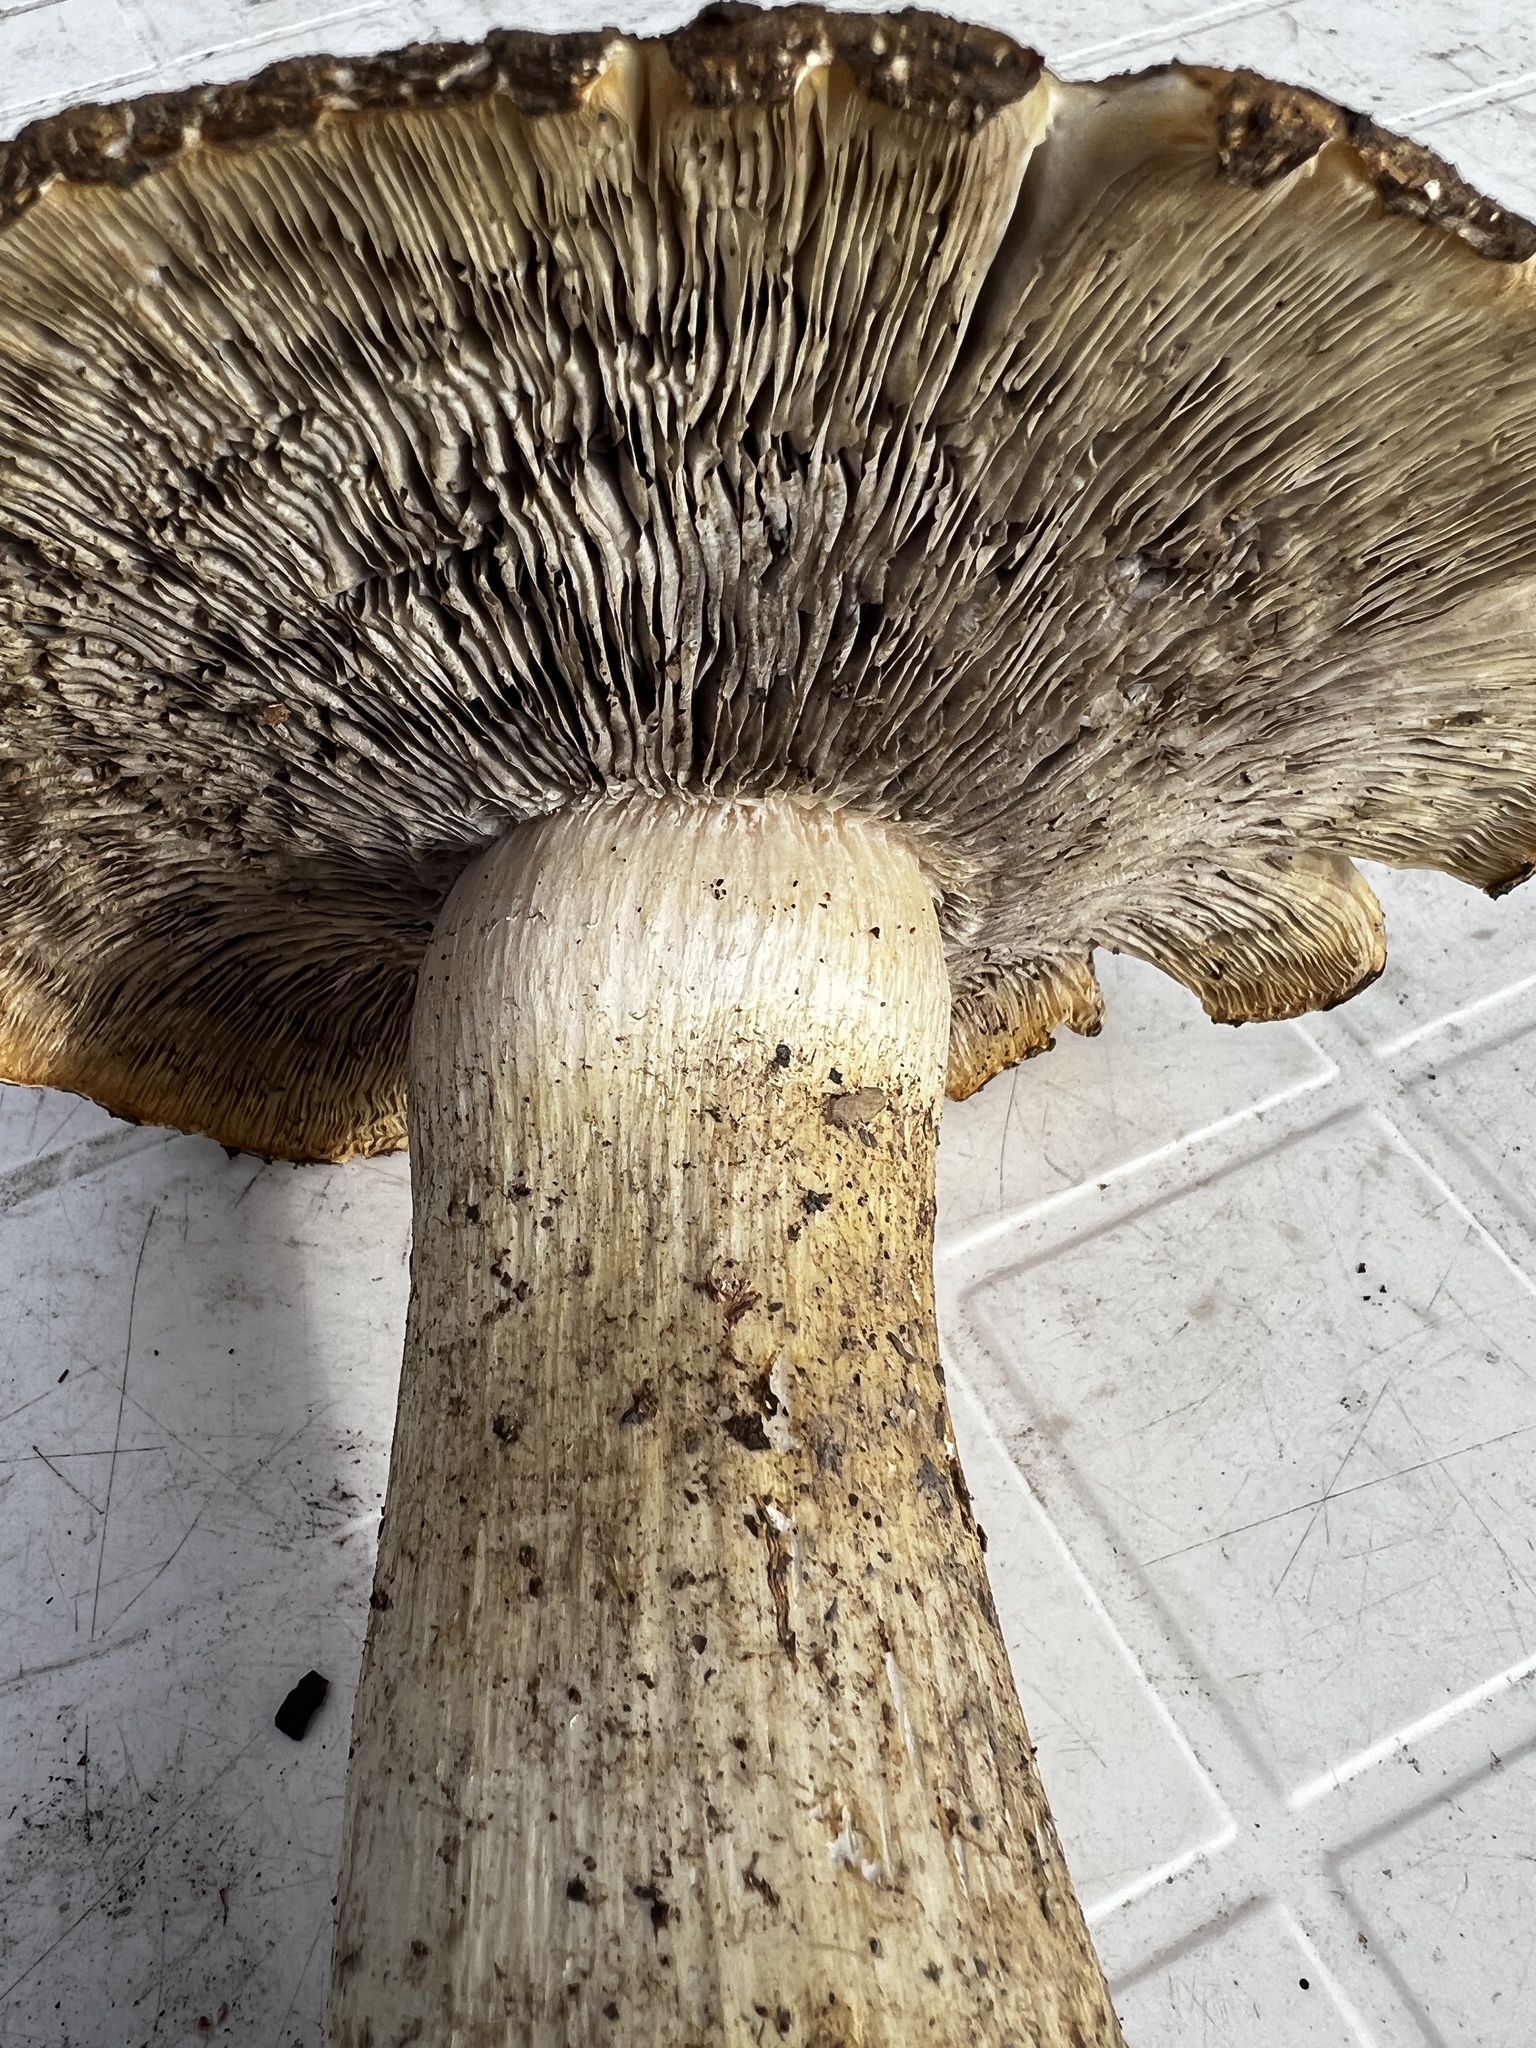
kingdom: Fungi
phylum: Basidiomycota
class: Agaricomycetes
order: Agaricales
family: Strophariaceae
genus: Stropharia
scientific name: Stropharia rugosoannulata
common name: Wine roundhead
